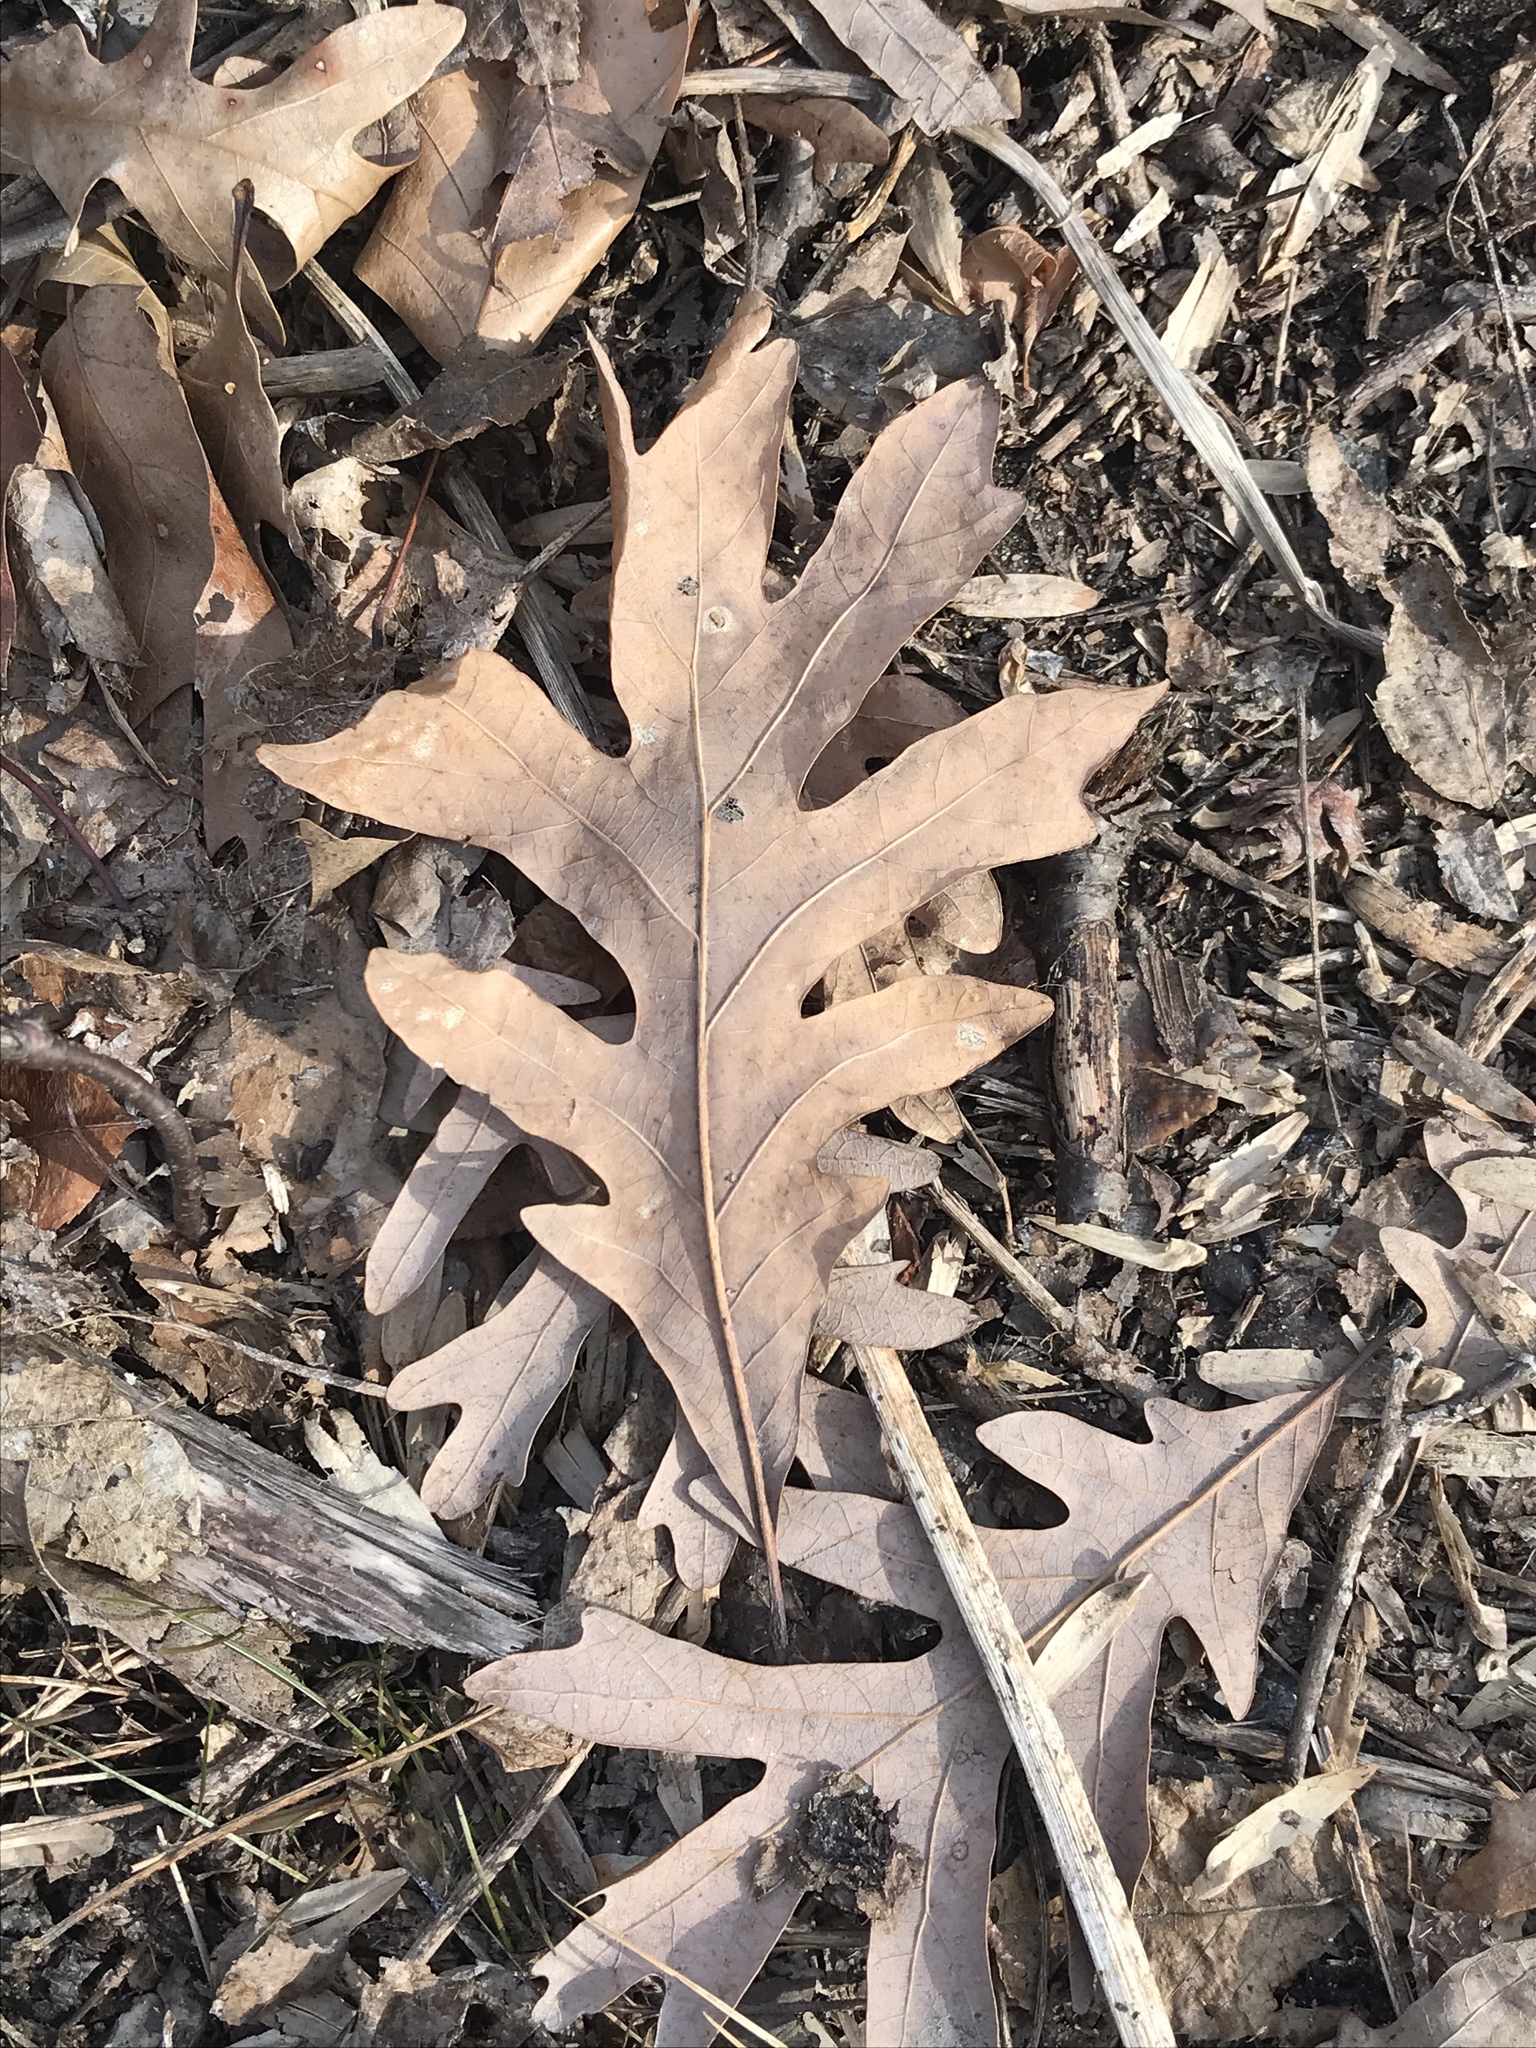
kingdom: Plantae
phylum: Tracheophyta
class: Magnoliopsida
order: Fagales
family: Fagaceae
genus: Quercus
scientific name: Quercus alba
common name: White oak
